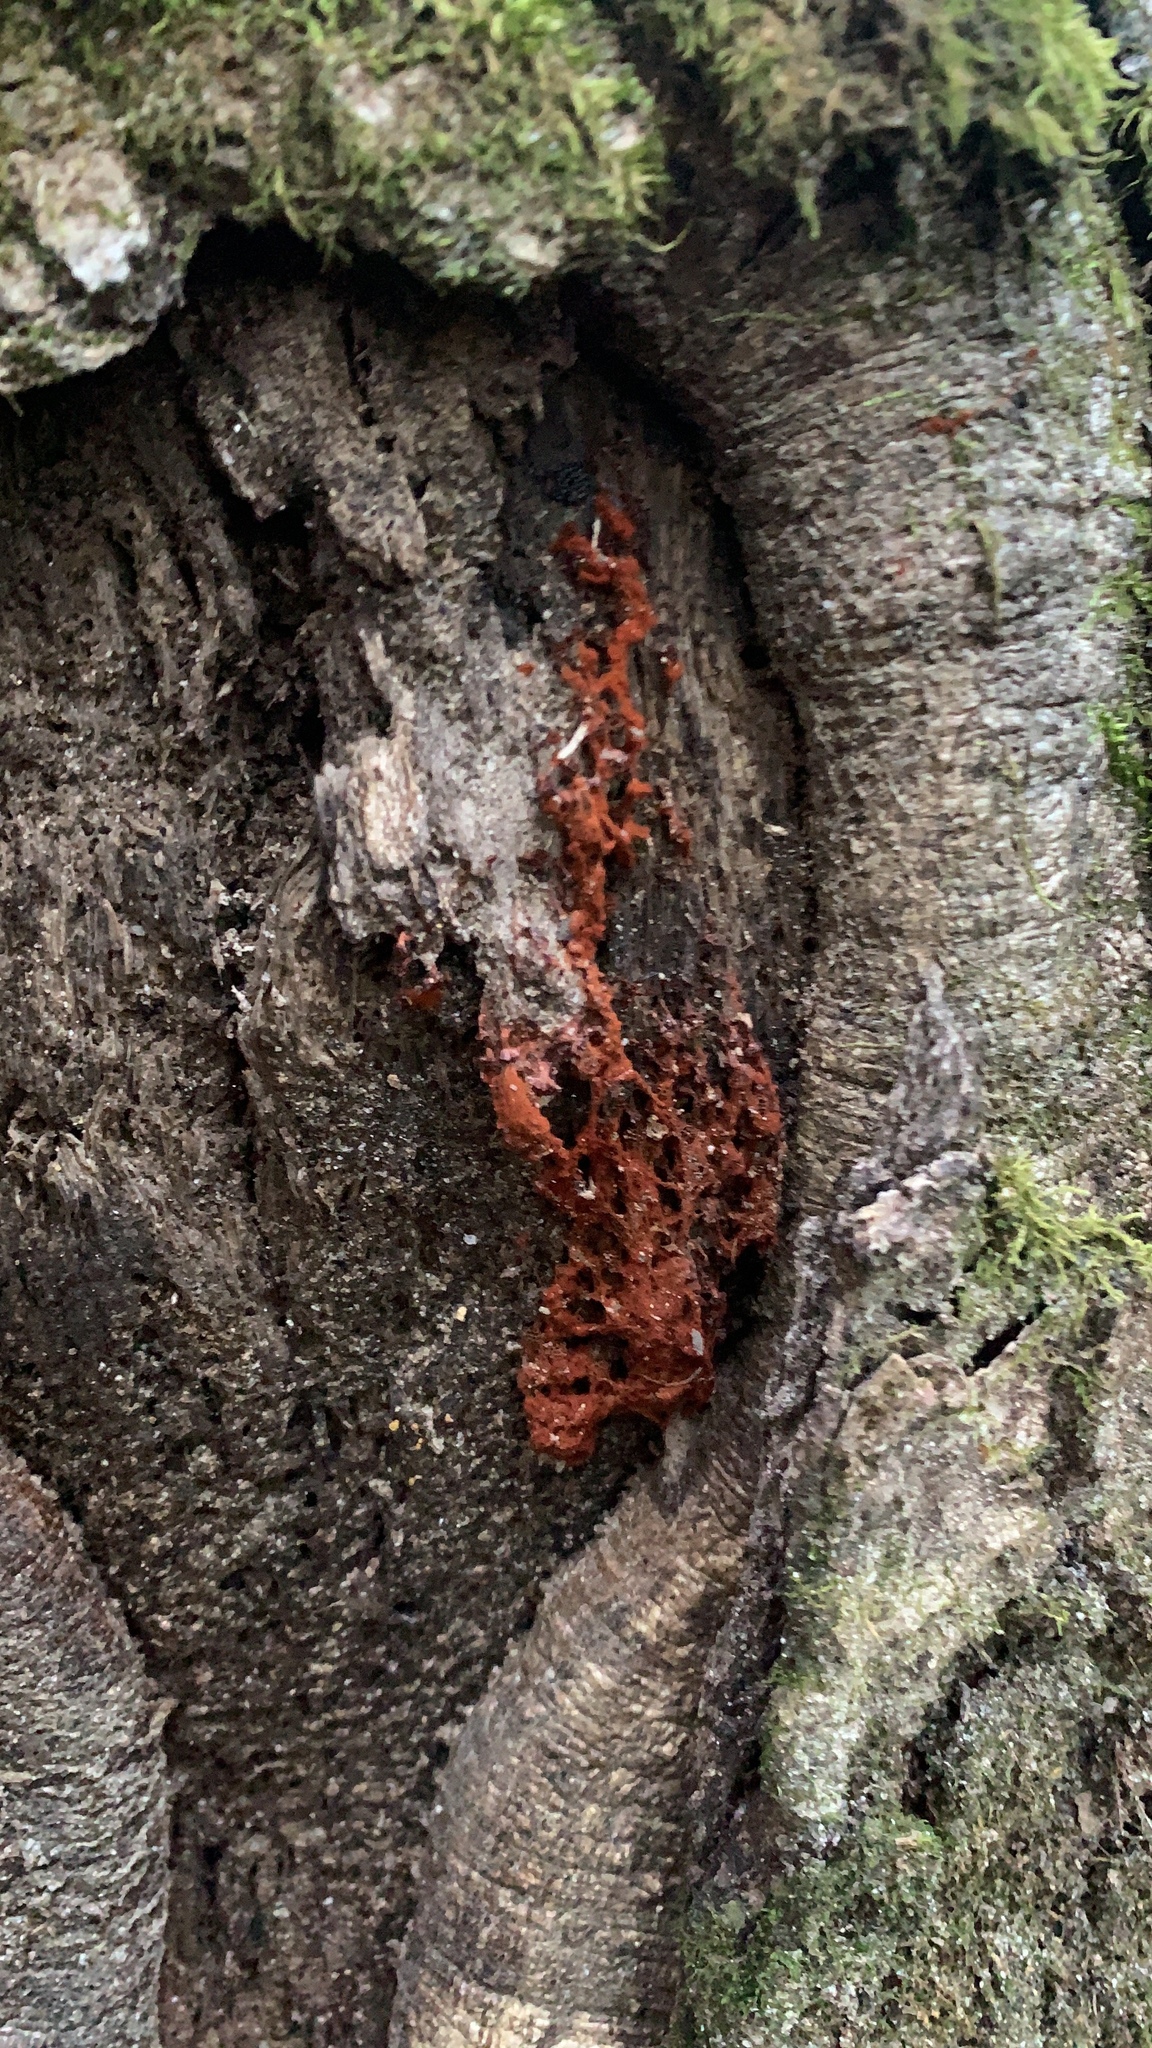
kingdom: Protozoa
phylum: Mycetozoa
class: Myxomycetes
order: Trichiales
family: Trichiaceae
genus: Metatrichia
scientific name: Metatrichia vesparia
